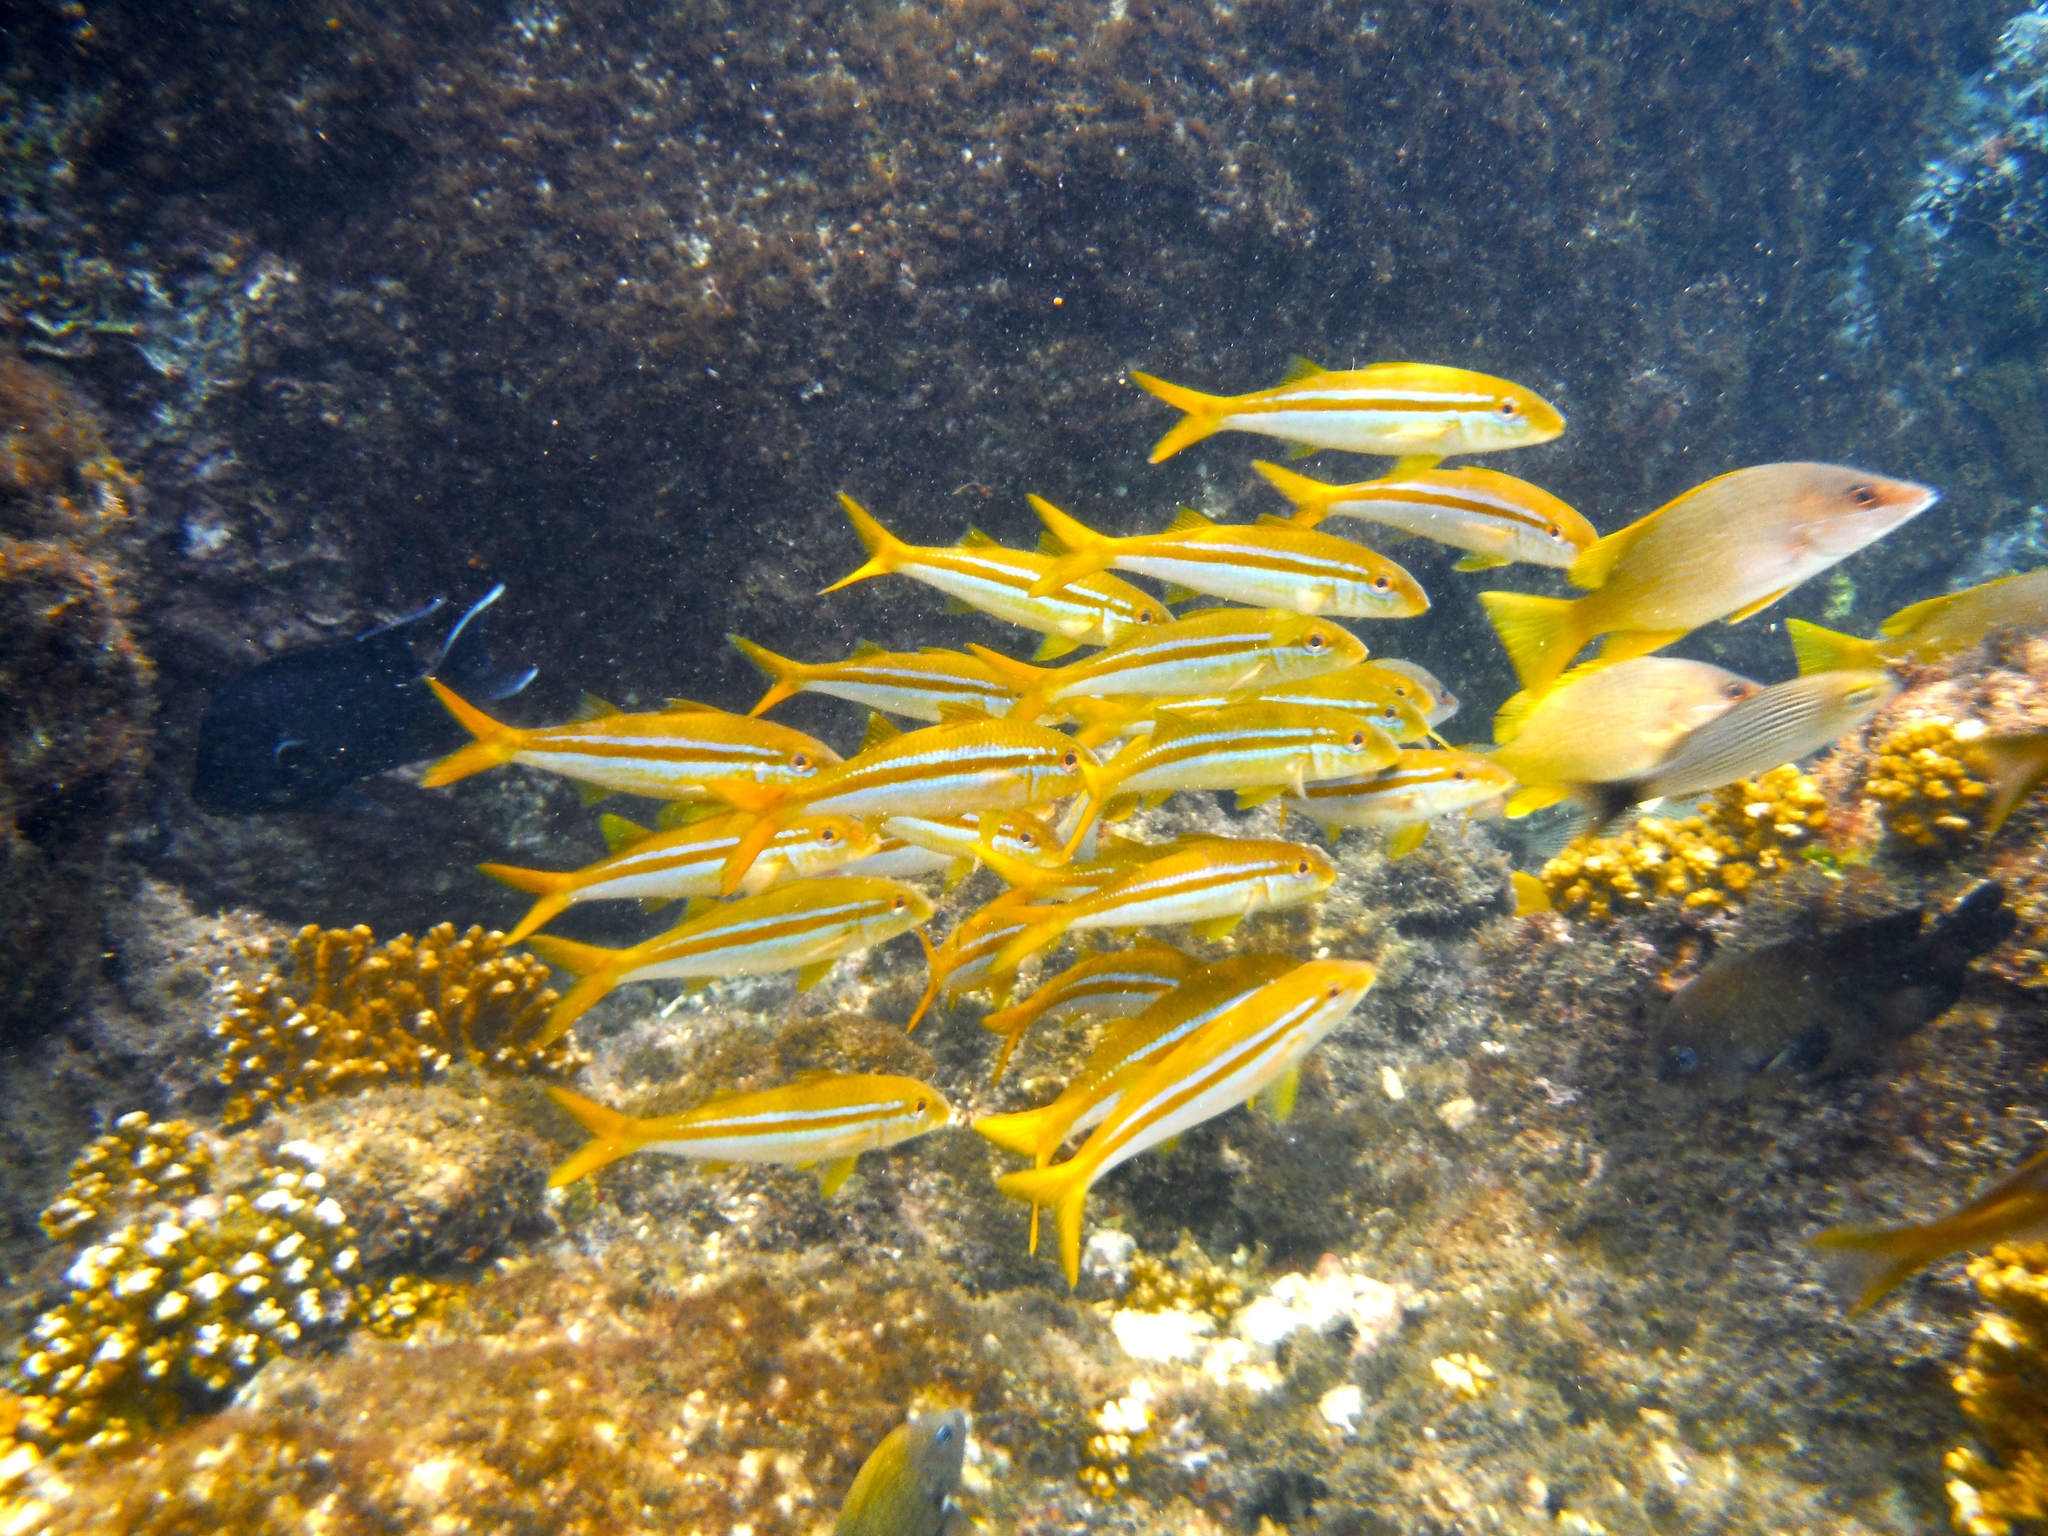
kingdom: Animalia
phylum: Chordata
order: Perciformes
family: Mullidae
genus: Mulloidichthys
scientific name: Mulloidichthys dentatus
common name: Mexican goatfish
